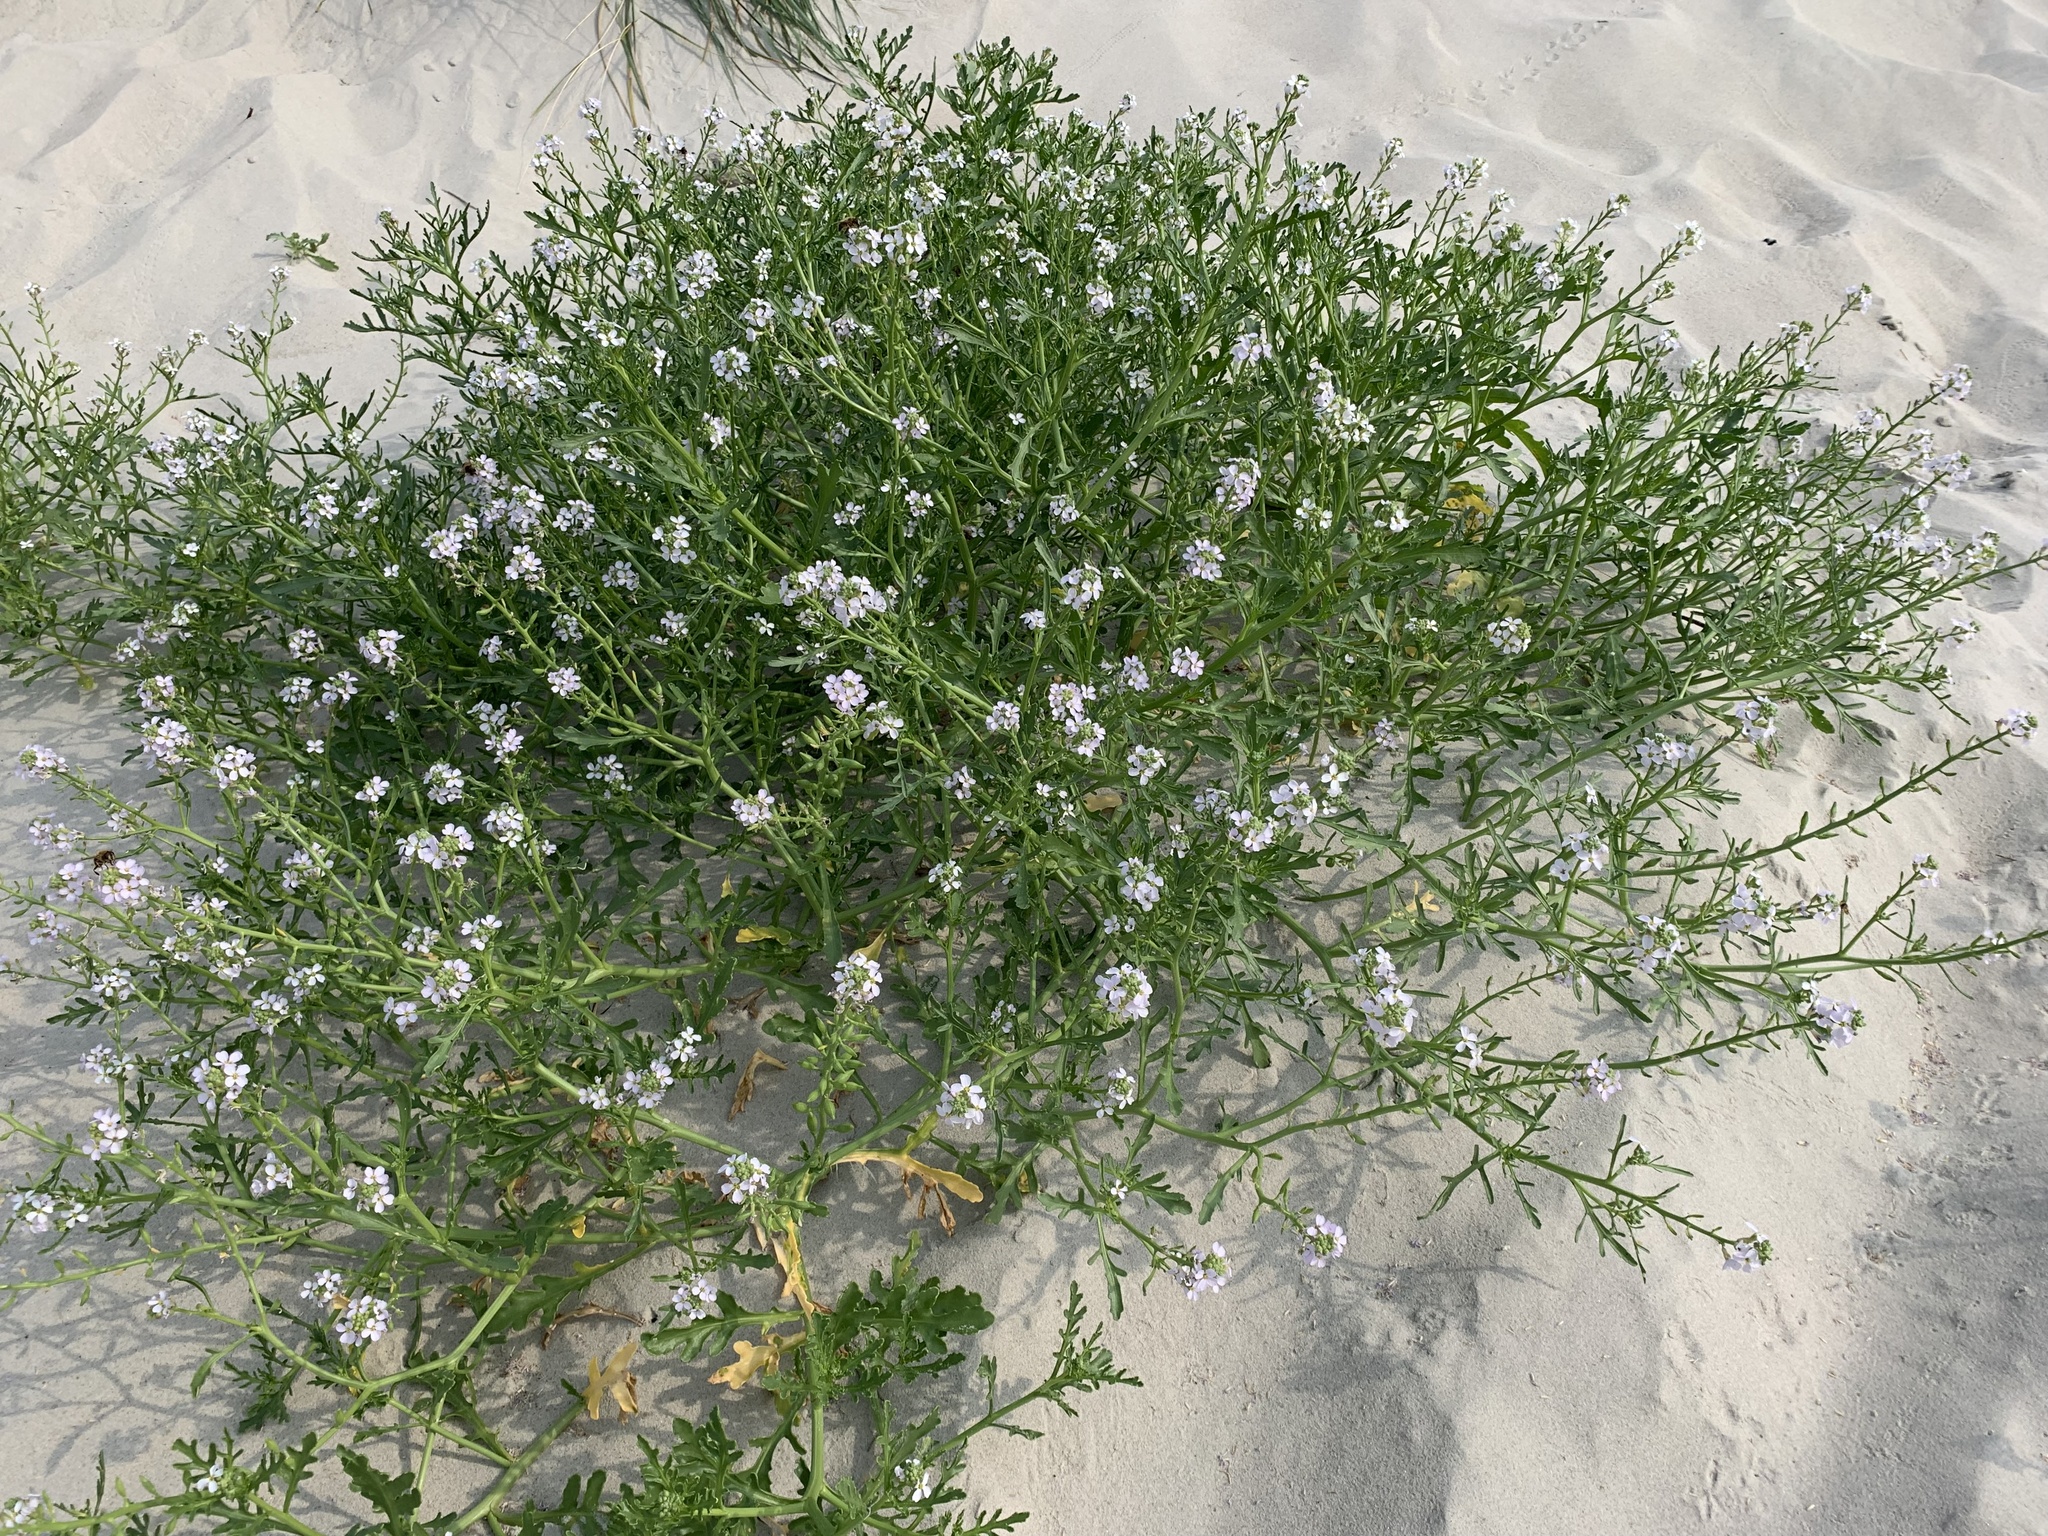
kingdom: Plantae
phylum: Tracheophyta
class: Magnoliopsida
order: Brassicales
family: Brassicaceae
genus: Cakile
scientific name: Cakile maritima
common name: Sea rocket
